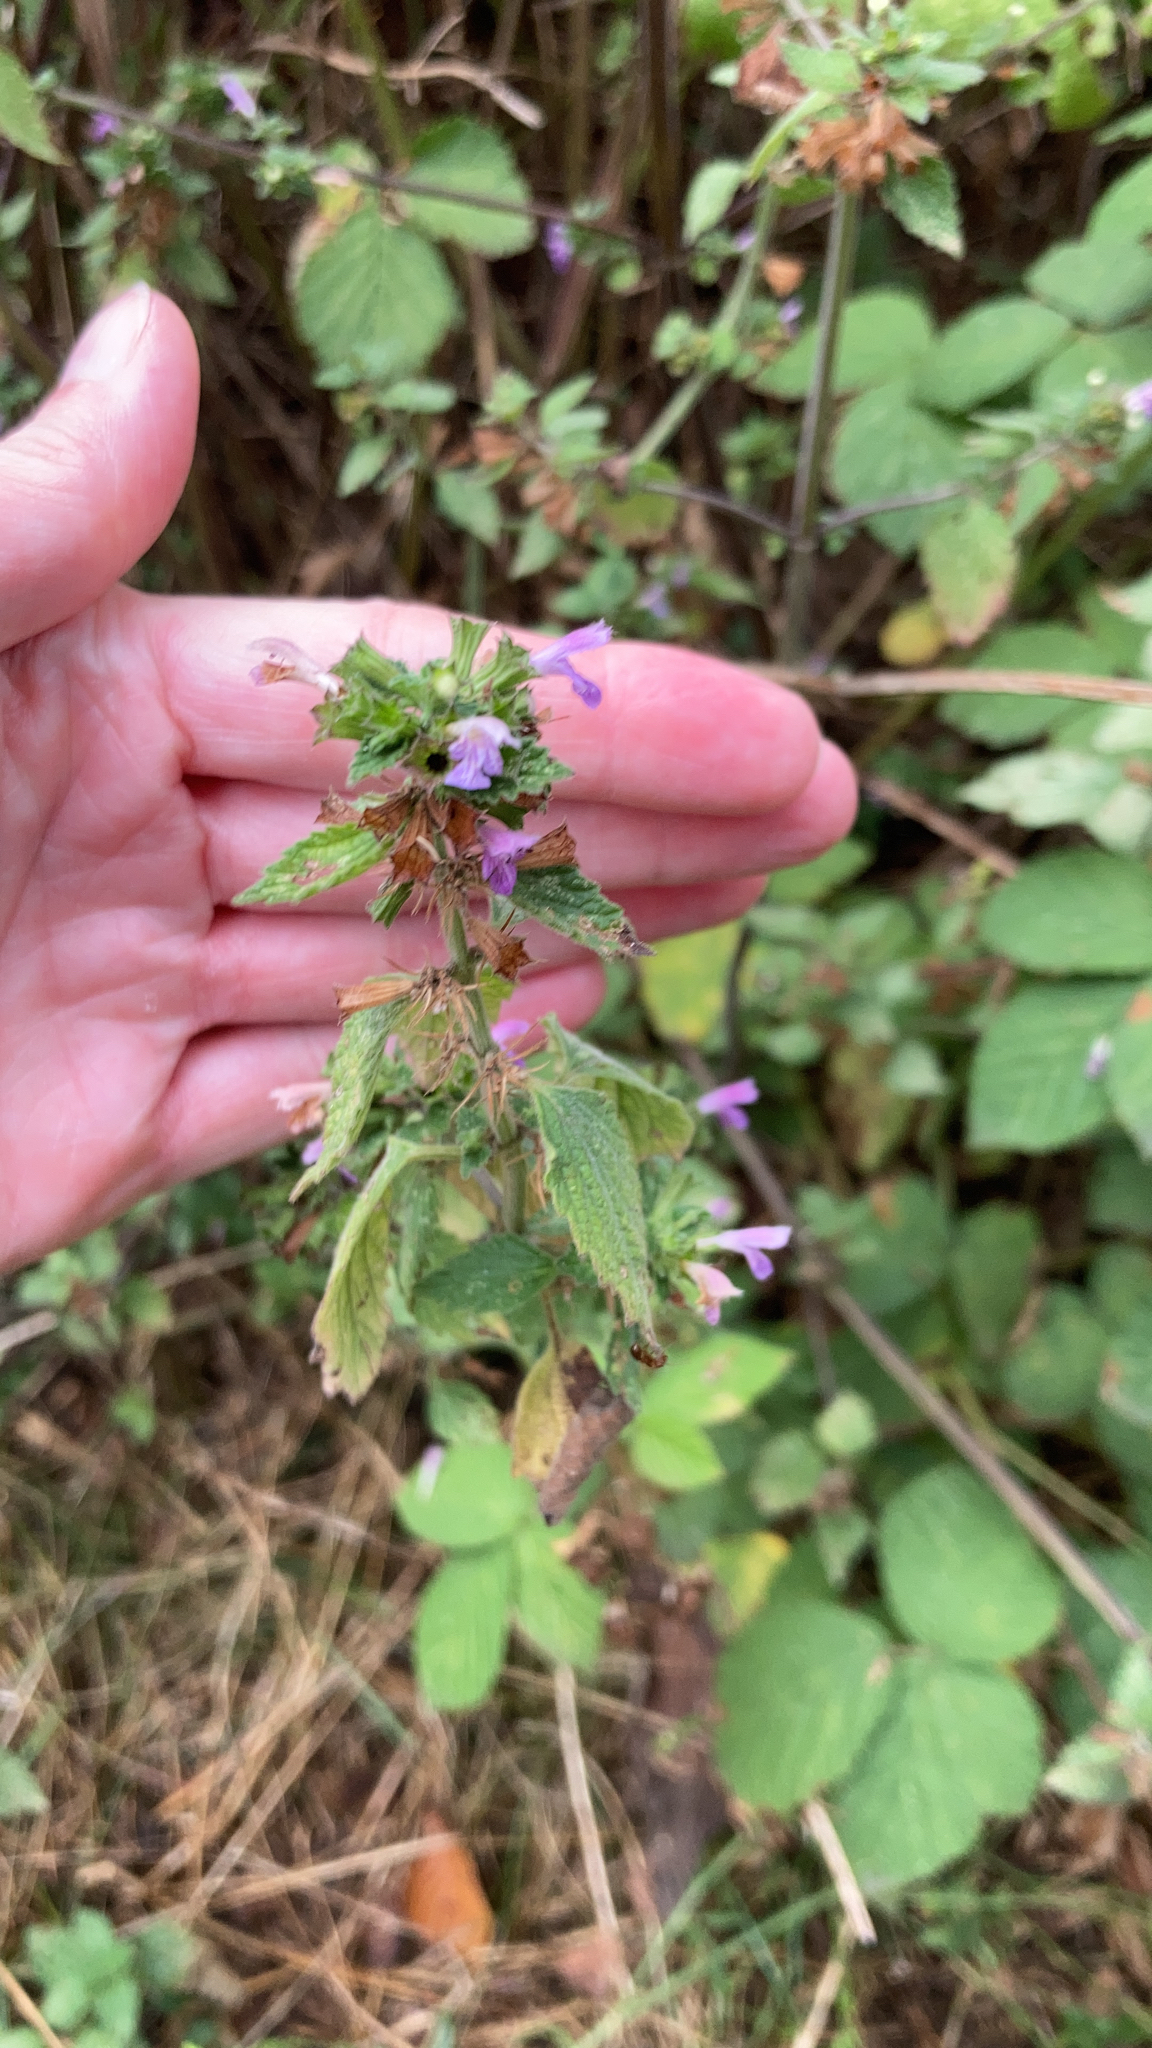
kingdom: Plantae
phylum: Tracheophyta
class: Magnoliopsida
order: Lamiales
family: Lamiaceae
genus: Ballota
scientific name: Ballota nigra
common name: Black horehound
